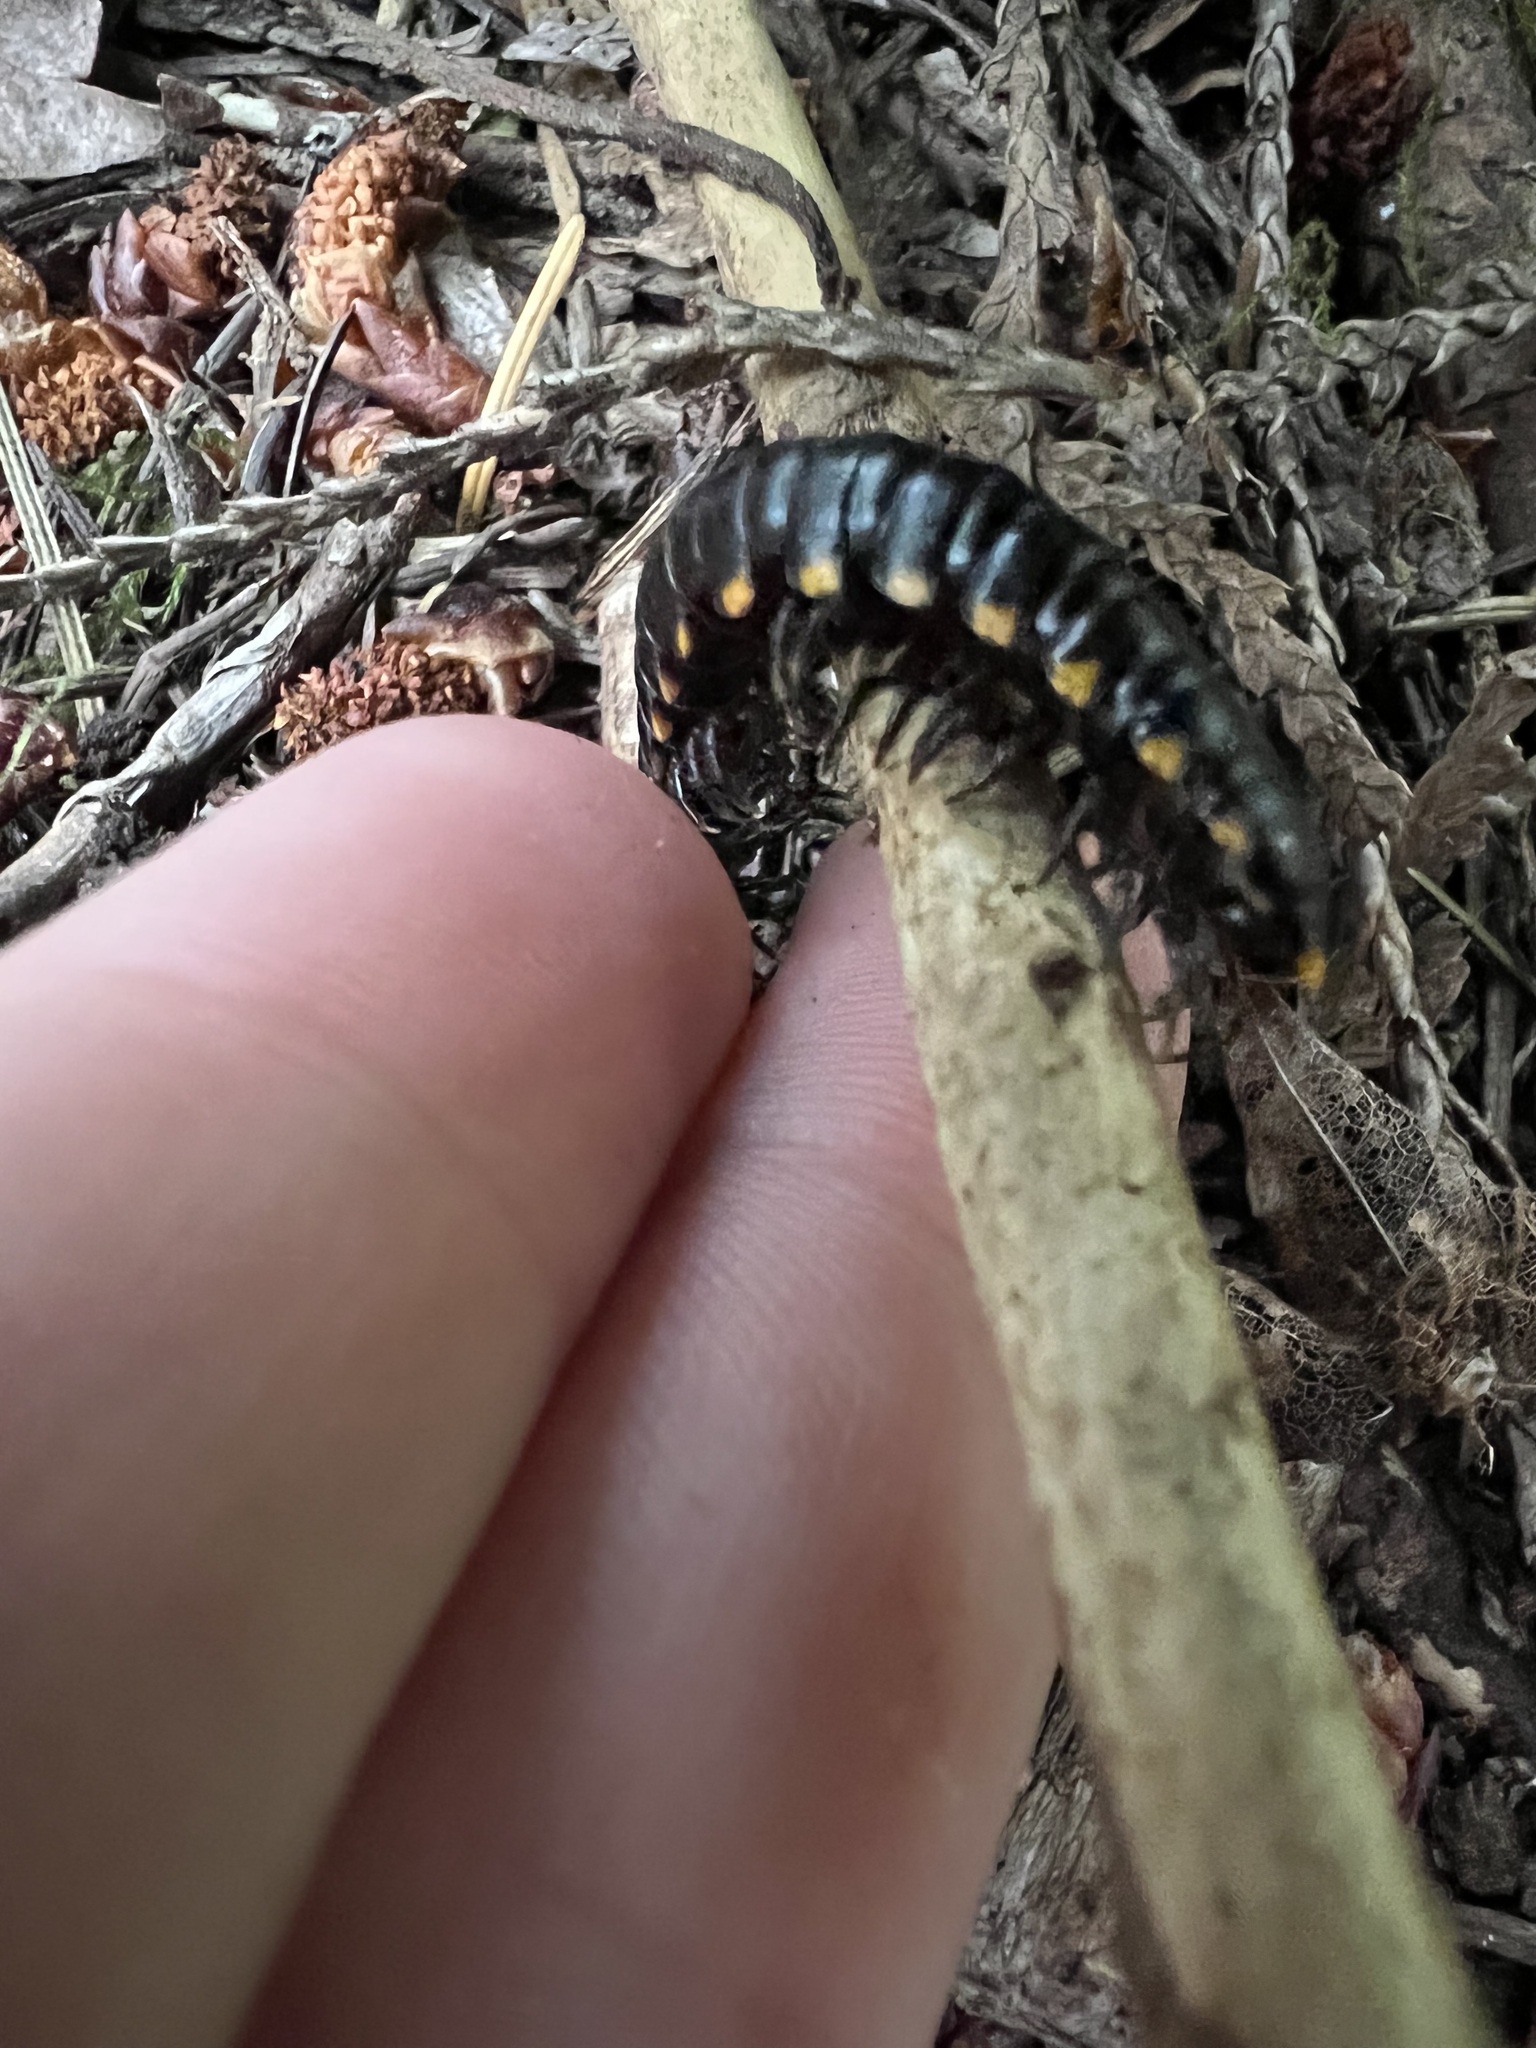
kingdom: Animalia
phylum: Arthropoda
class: Diplopoda
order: Polydesmida
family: Xystodesmidae
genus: Harpaphe
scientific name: Harpaphe haydeniana
